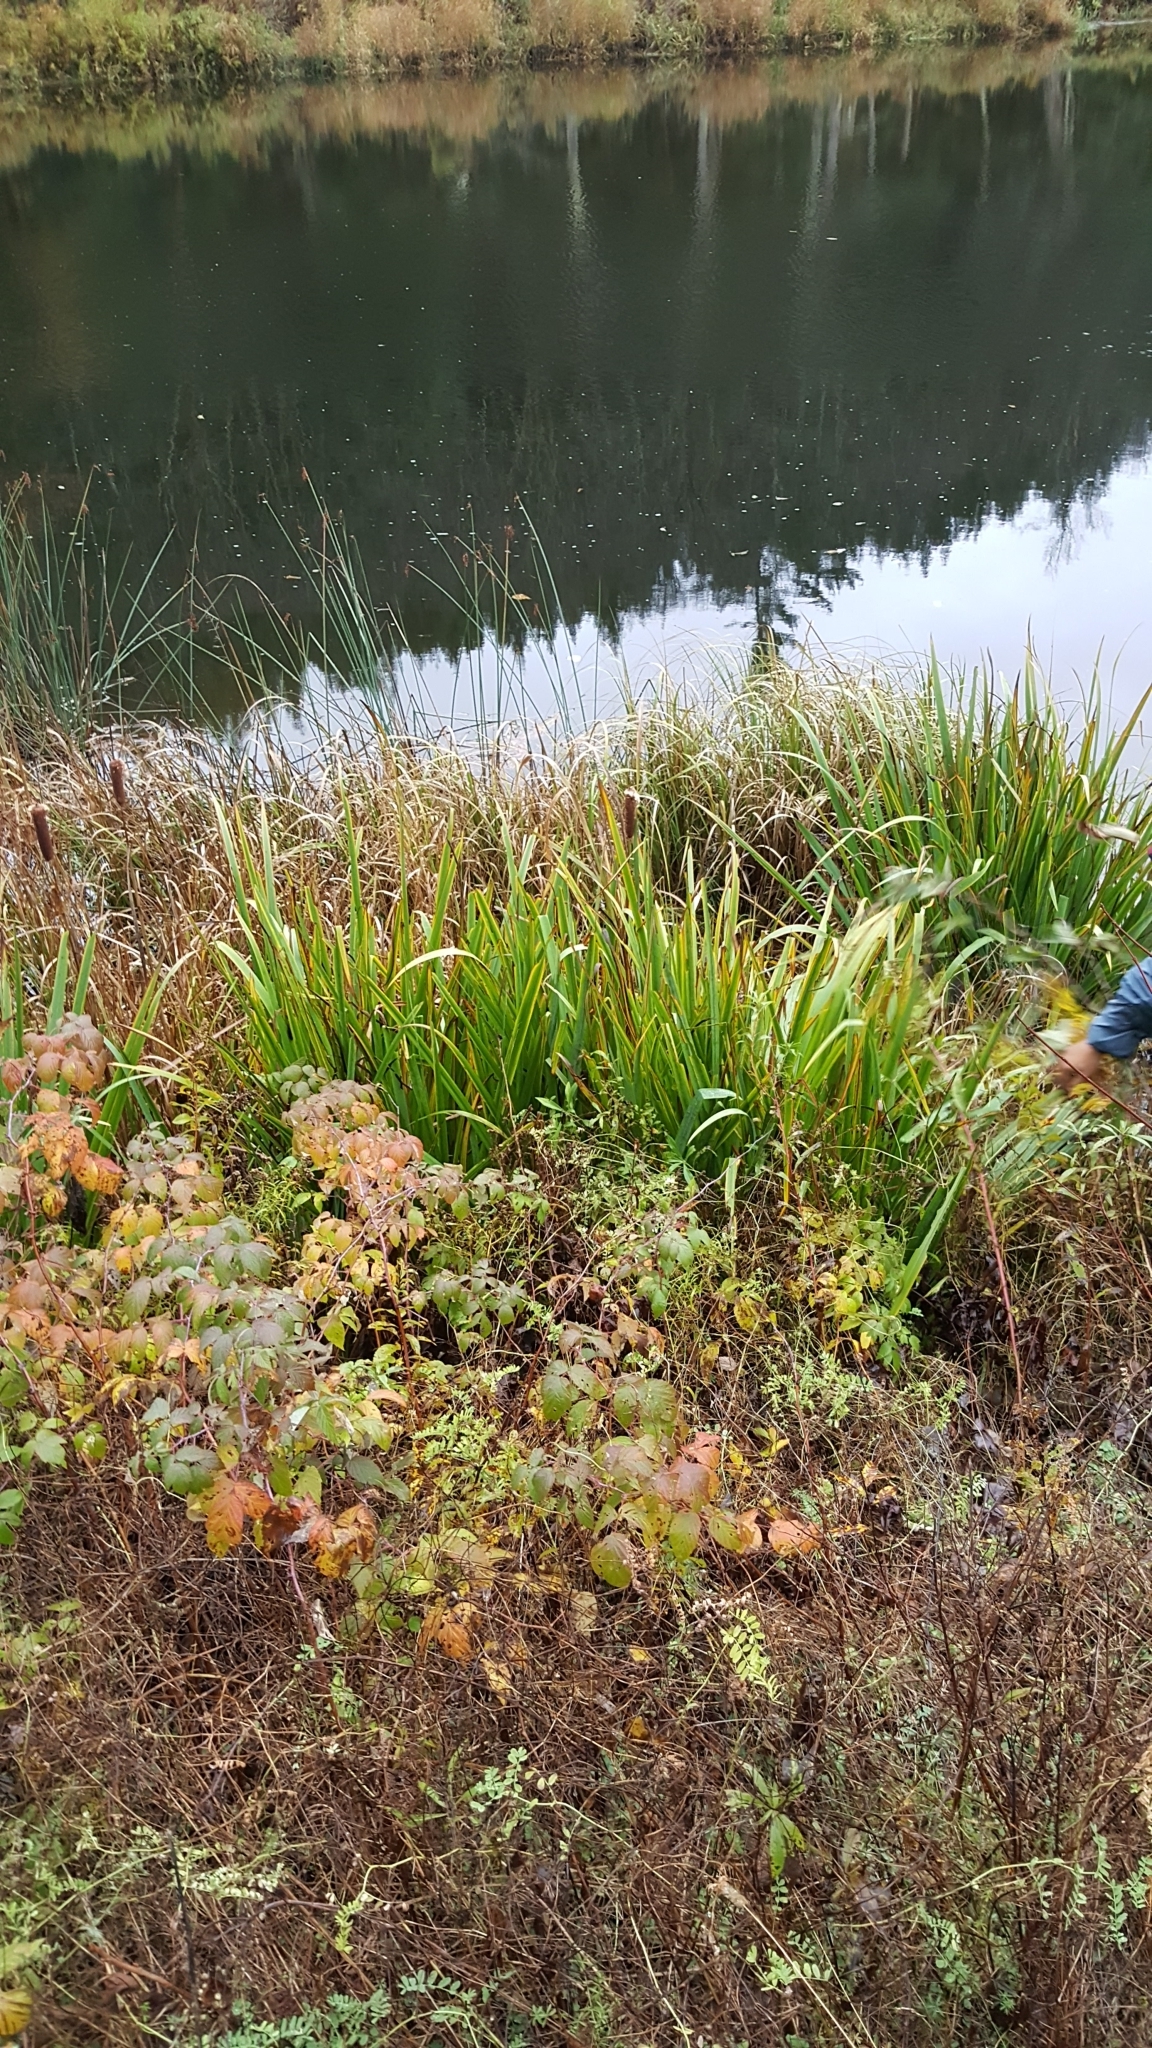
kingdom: Plantae
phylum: Tracheophyta
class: Liliopsida
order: Asparagales
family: Iridaceae
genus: Iris
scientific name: Iris pseudacorus
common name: Yellow flag
